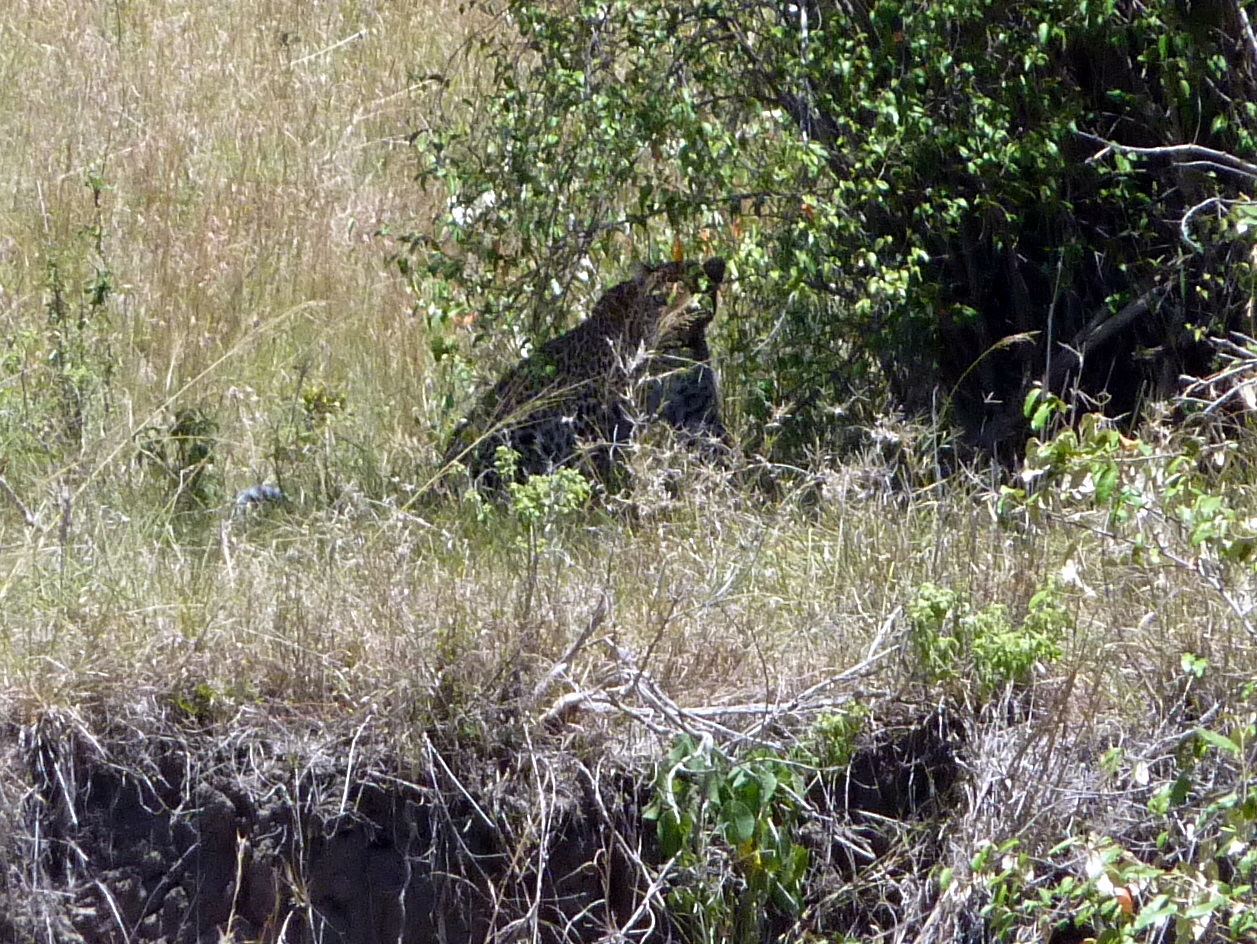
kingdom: Animalia
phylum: Chordata
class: Mammalia
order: Carnivora
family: Felidae
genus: Panthera
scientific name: Panthera pardus
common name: Leopard
